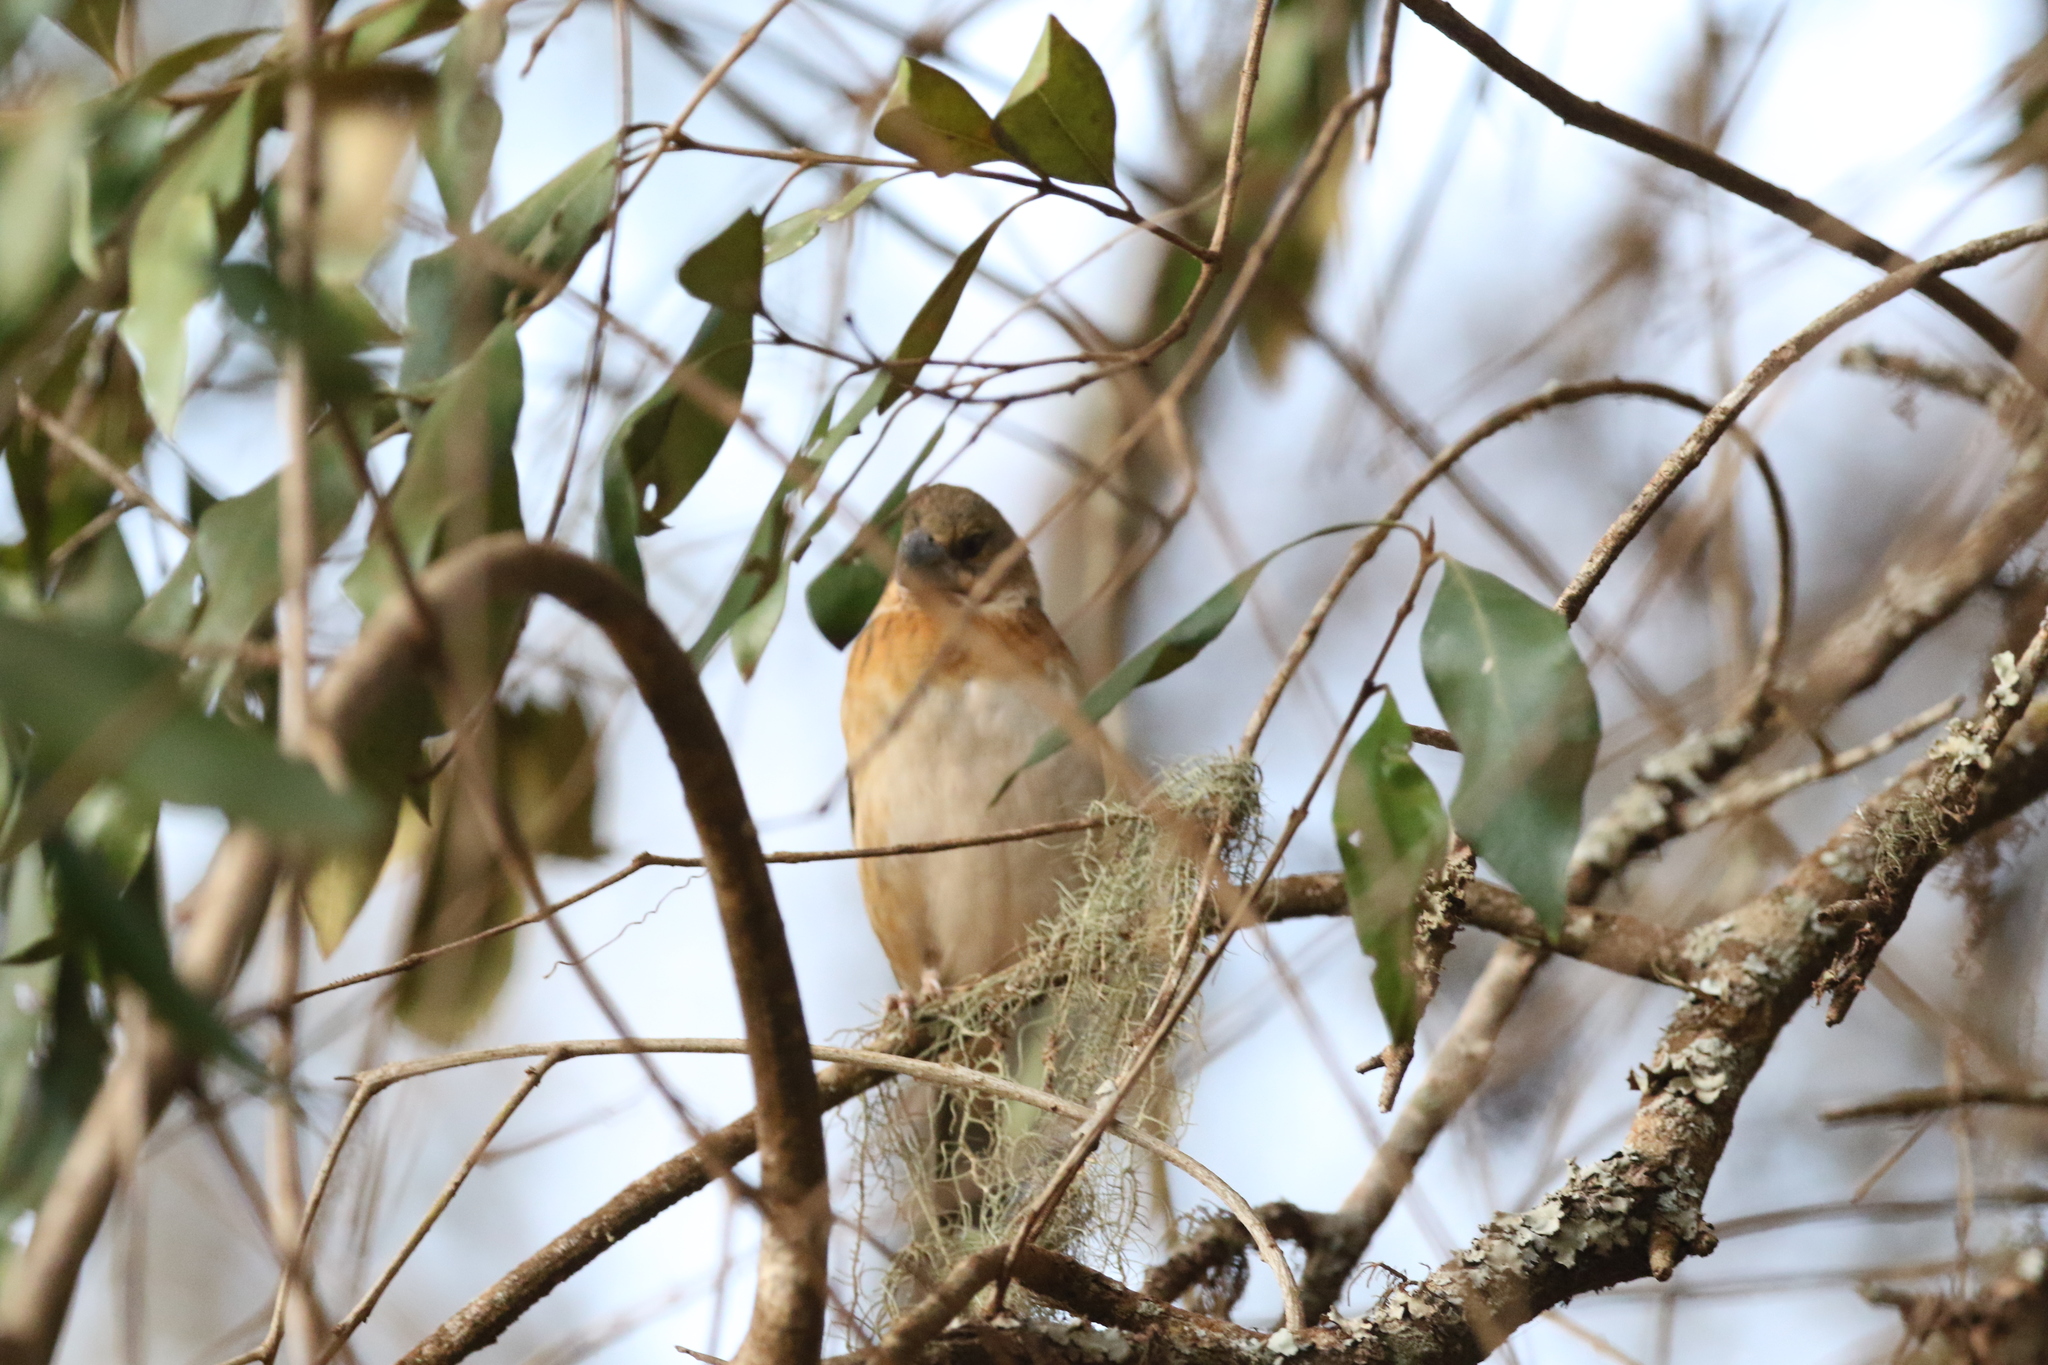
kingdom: Animalia
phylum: Chordata
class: Aves
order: Passeriformes
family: Ploceidae
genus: Ploceus
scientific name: Ploceus rubiginosus
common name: Chestnut weaver
